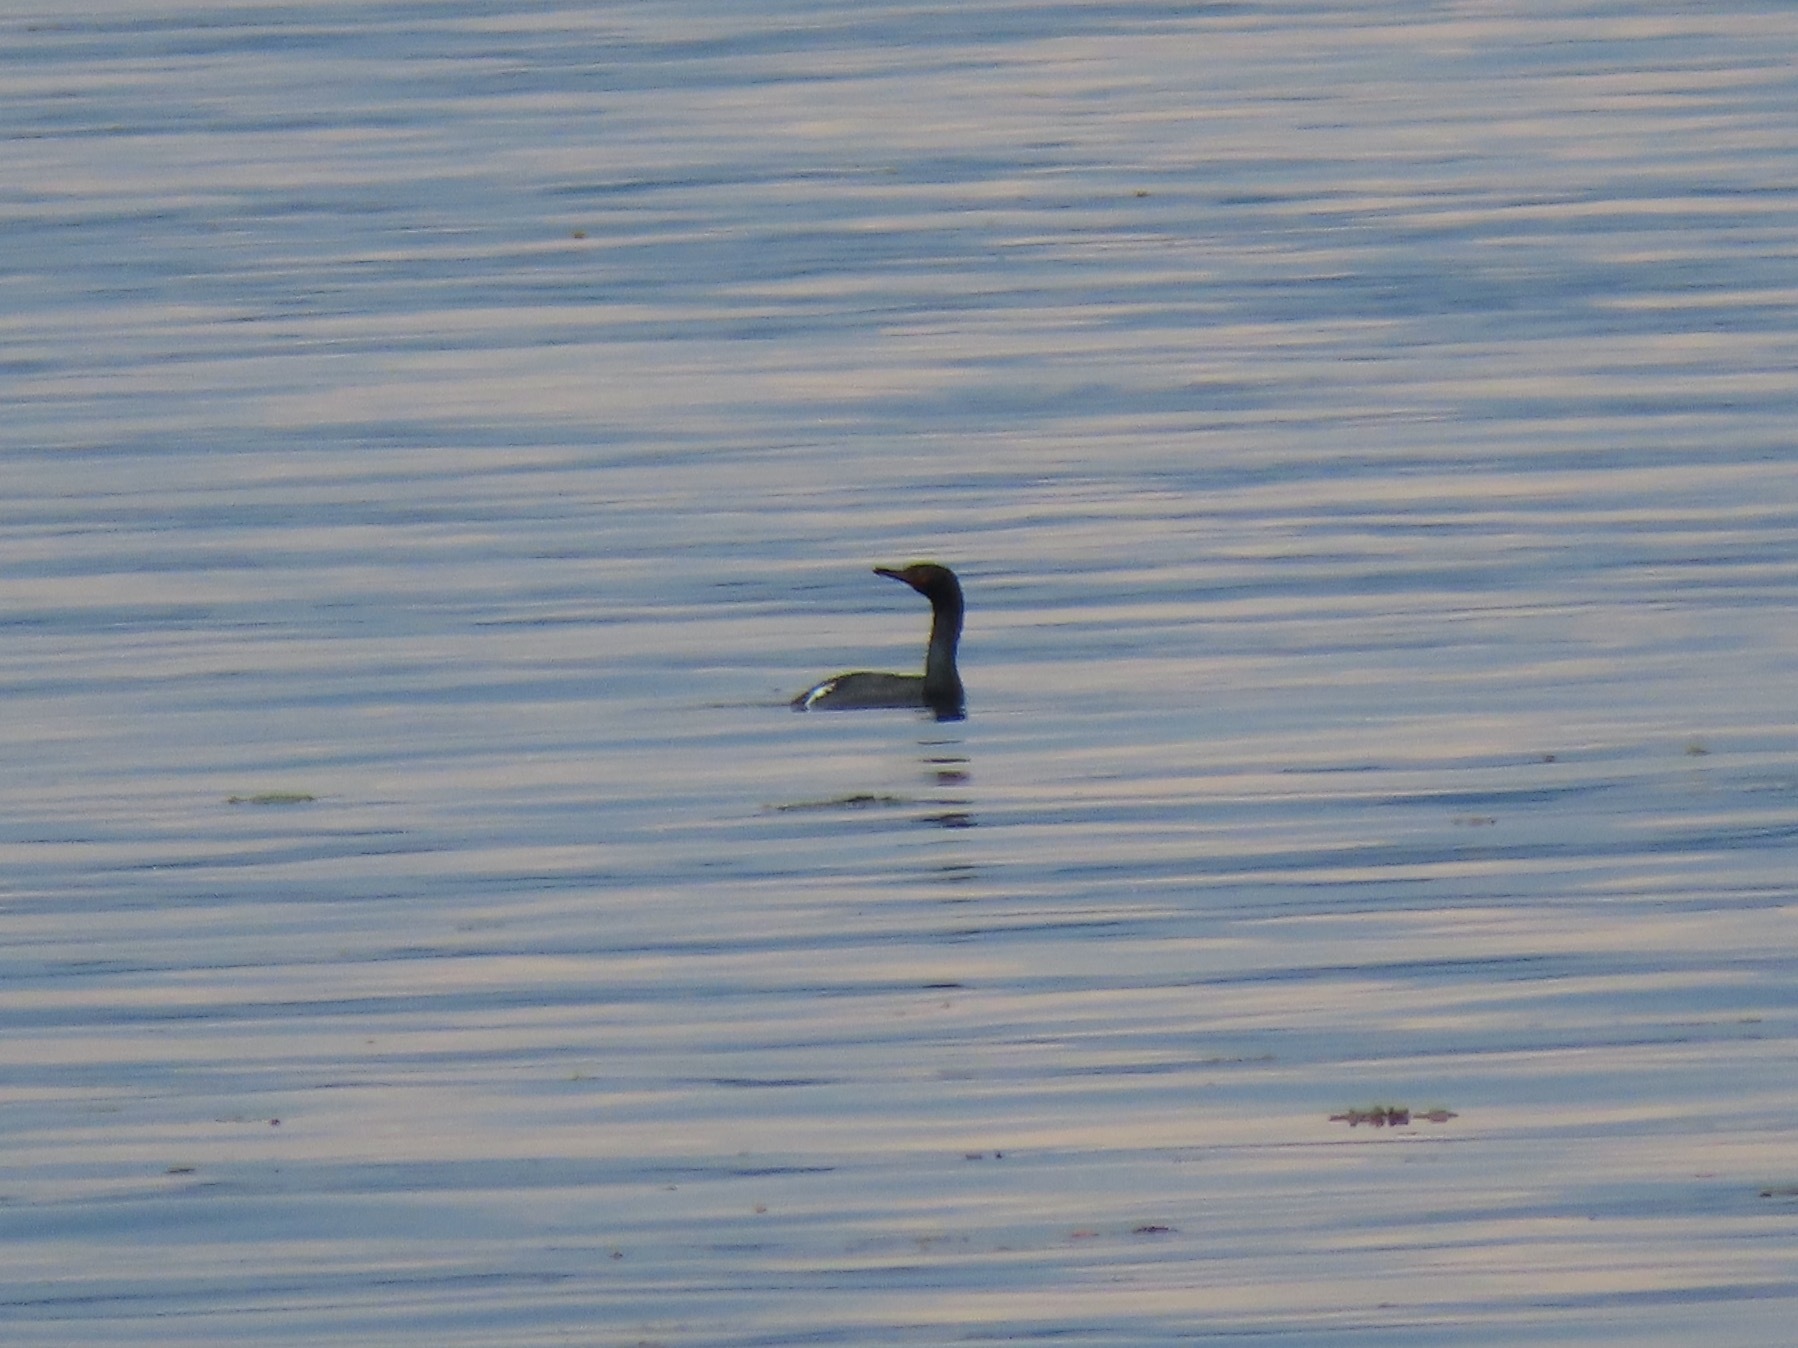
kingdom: Animalia
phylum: Chordata
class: Aves
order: Suliformes
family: Phalacrocoracidae
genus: Phalacrocorax
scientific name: Phalacrocorax pelagicus
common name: Pelagic cormorant
